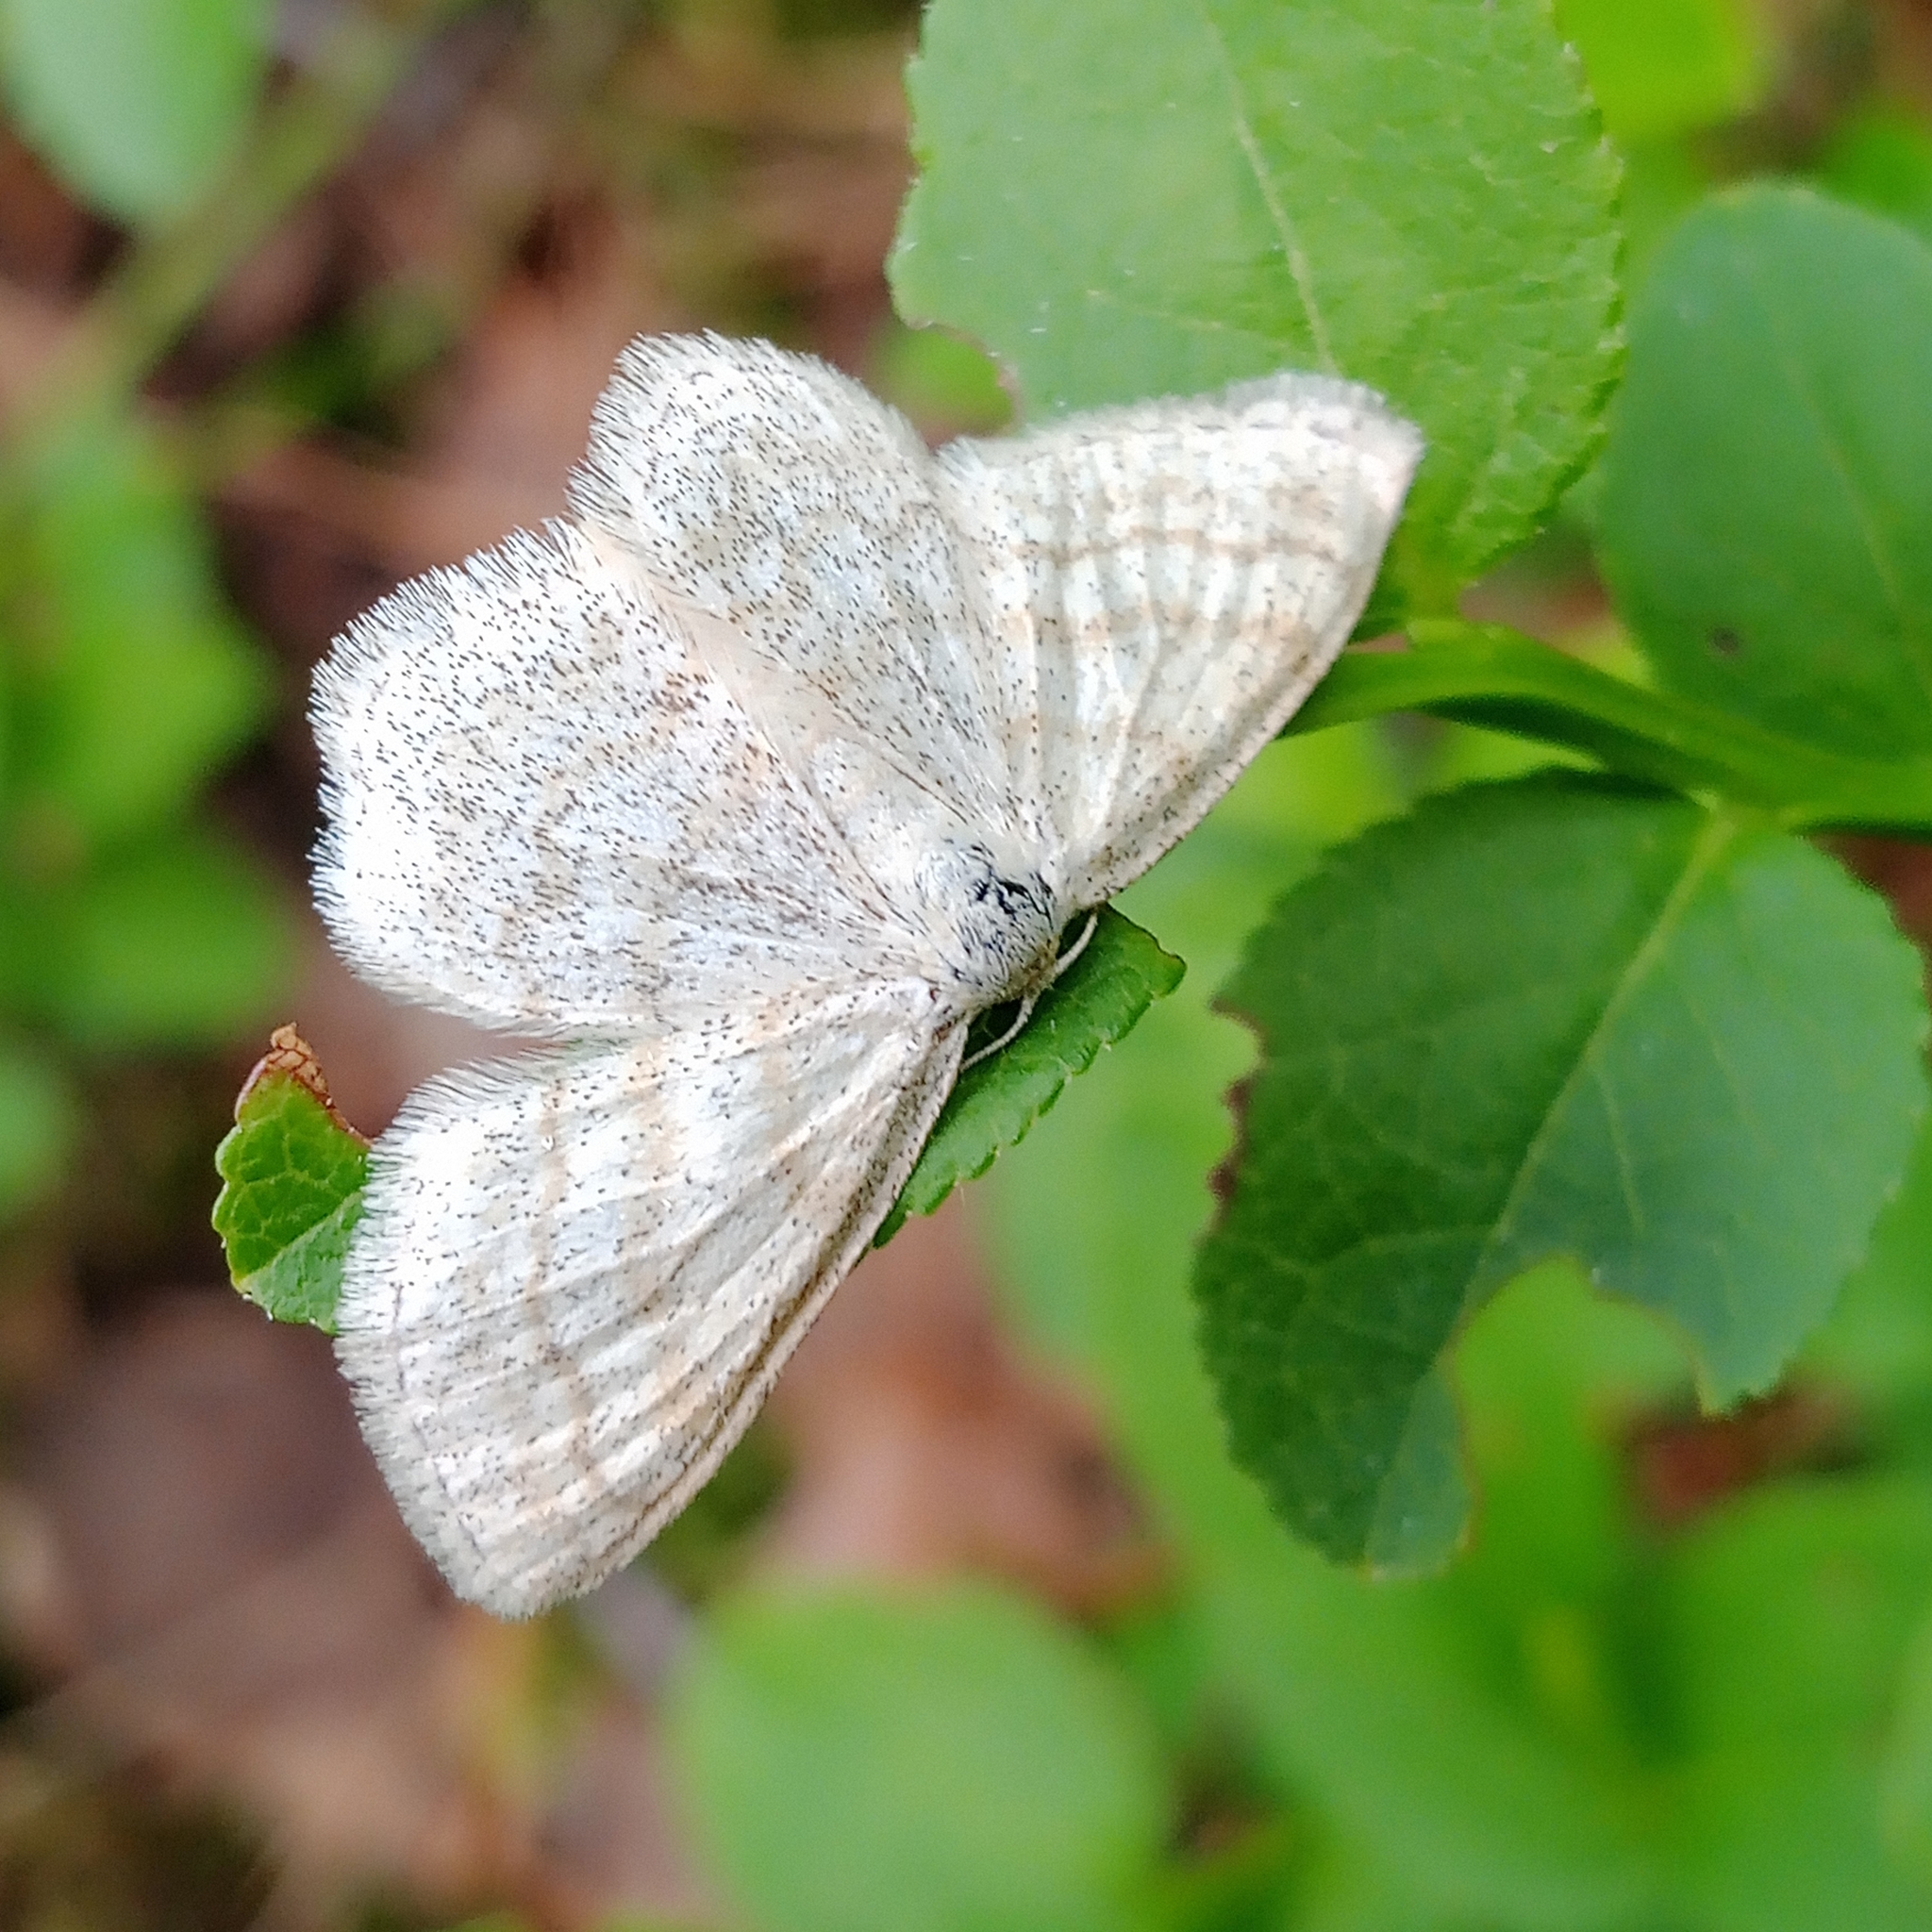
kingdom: Animalia
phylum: Arthropoda
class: Insecta
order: Lepidoptera
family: Geometridae
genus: Scopula
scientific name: Scopula ternata
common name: Smoky wave
